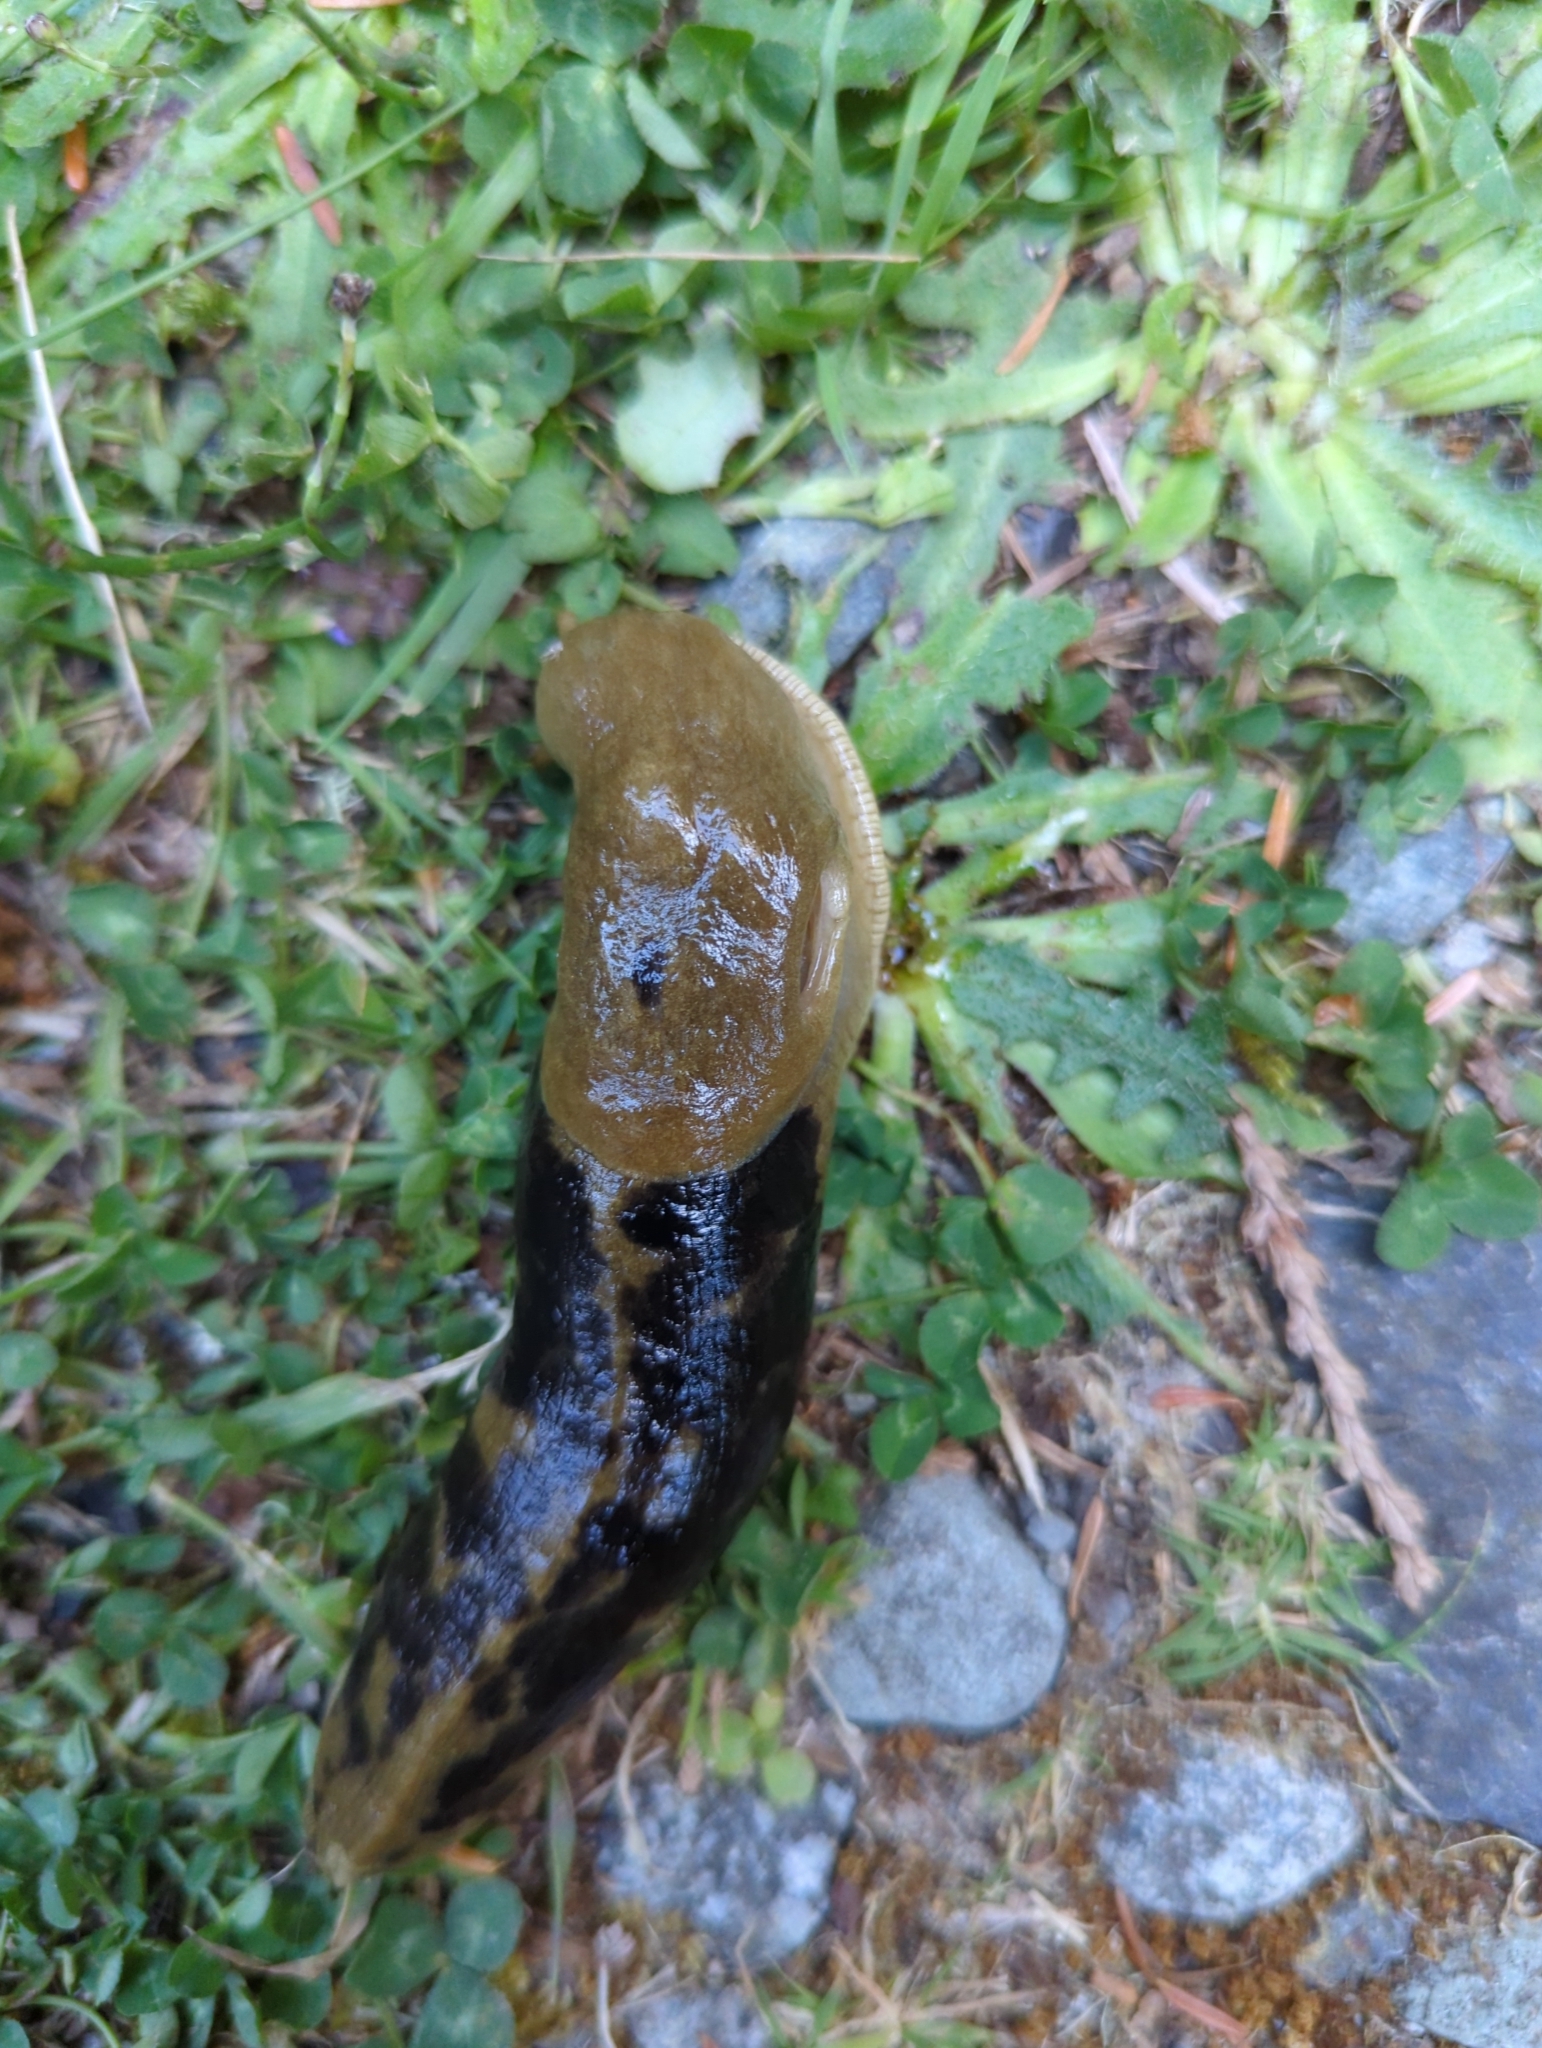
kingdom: Animalia
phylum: Mollusca
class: Gastropoda
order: Stylommatophora
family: Ariolimacidae
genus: Ariolimax
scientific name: Ariolimax columbianus
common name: Pacific banana slug
